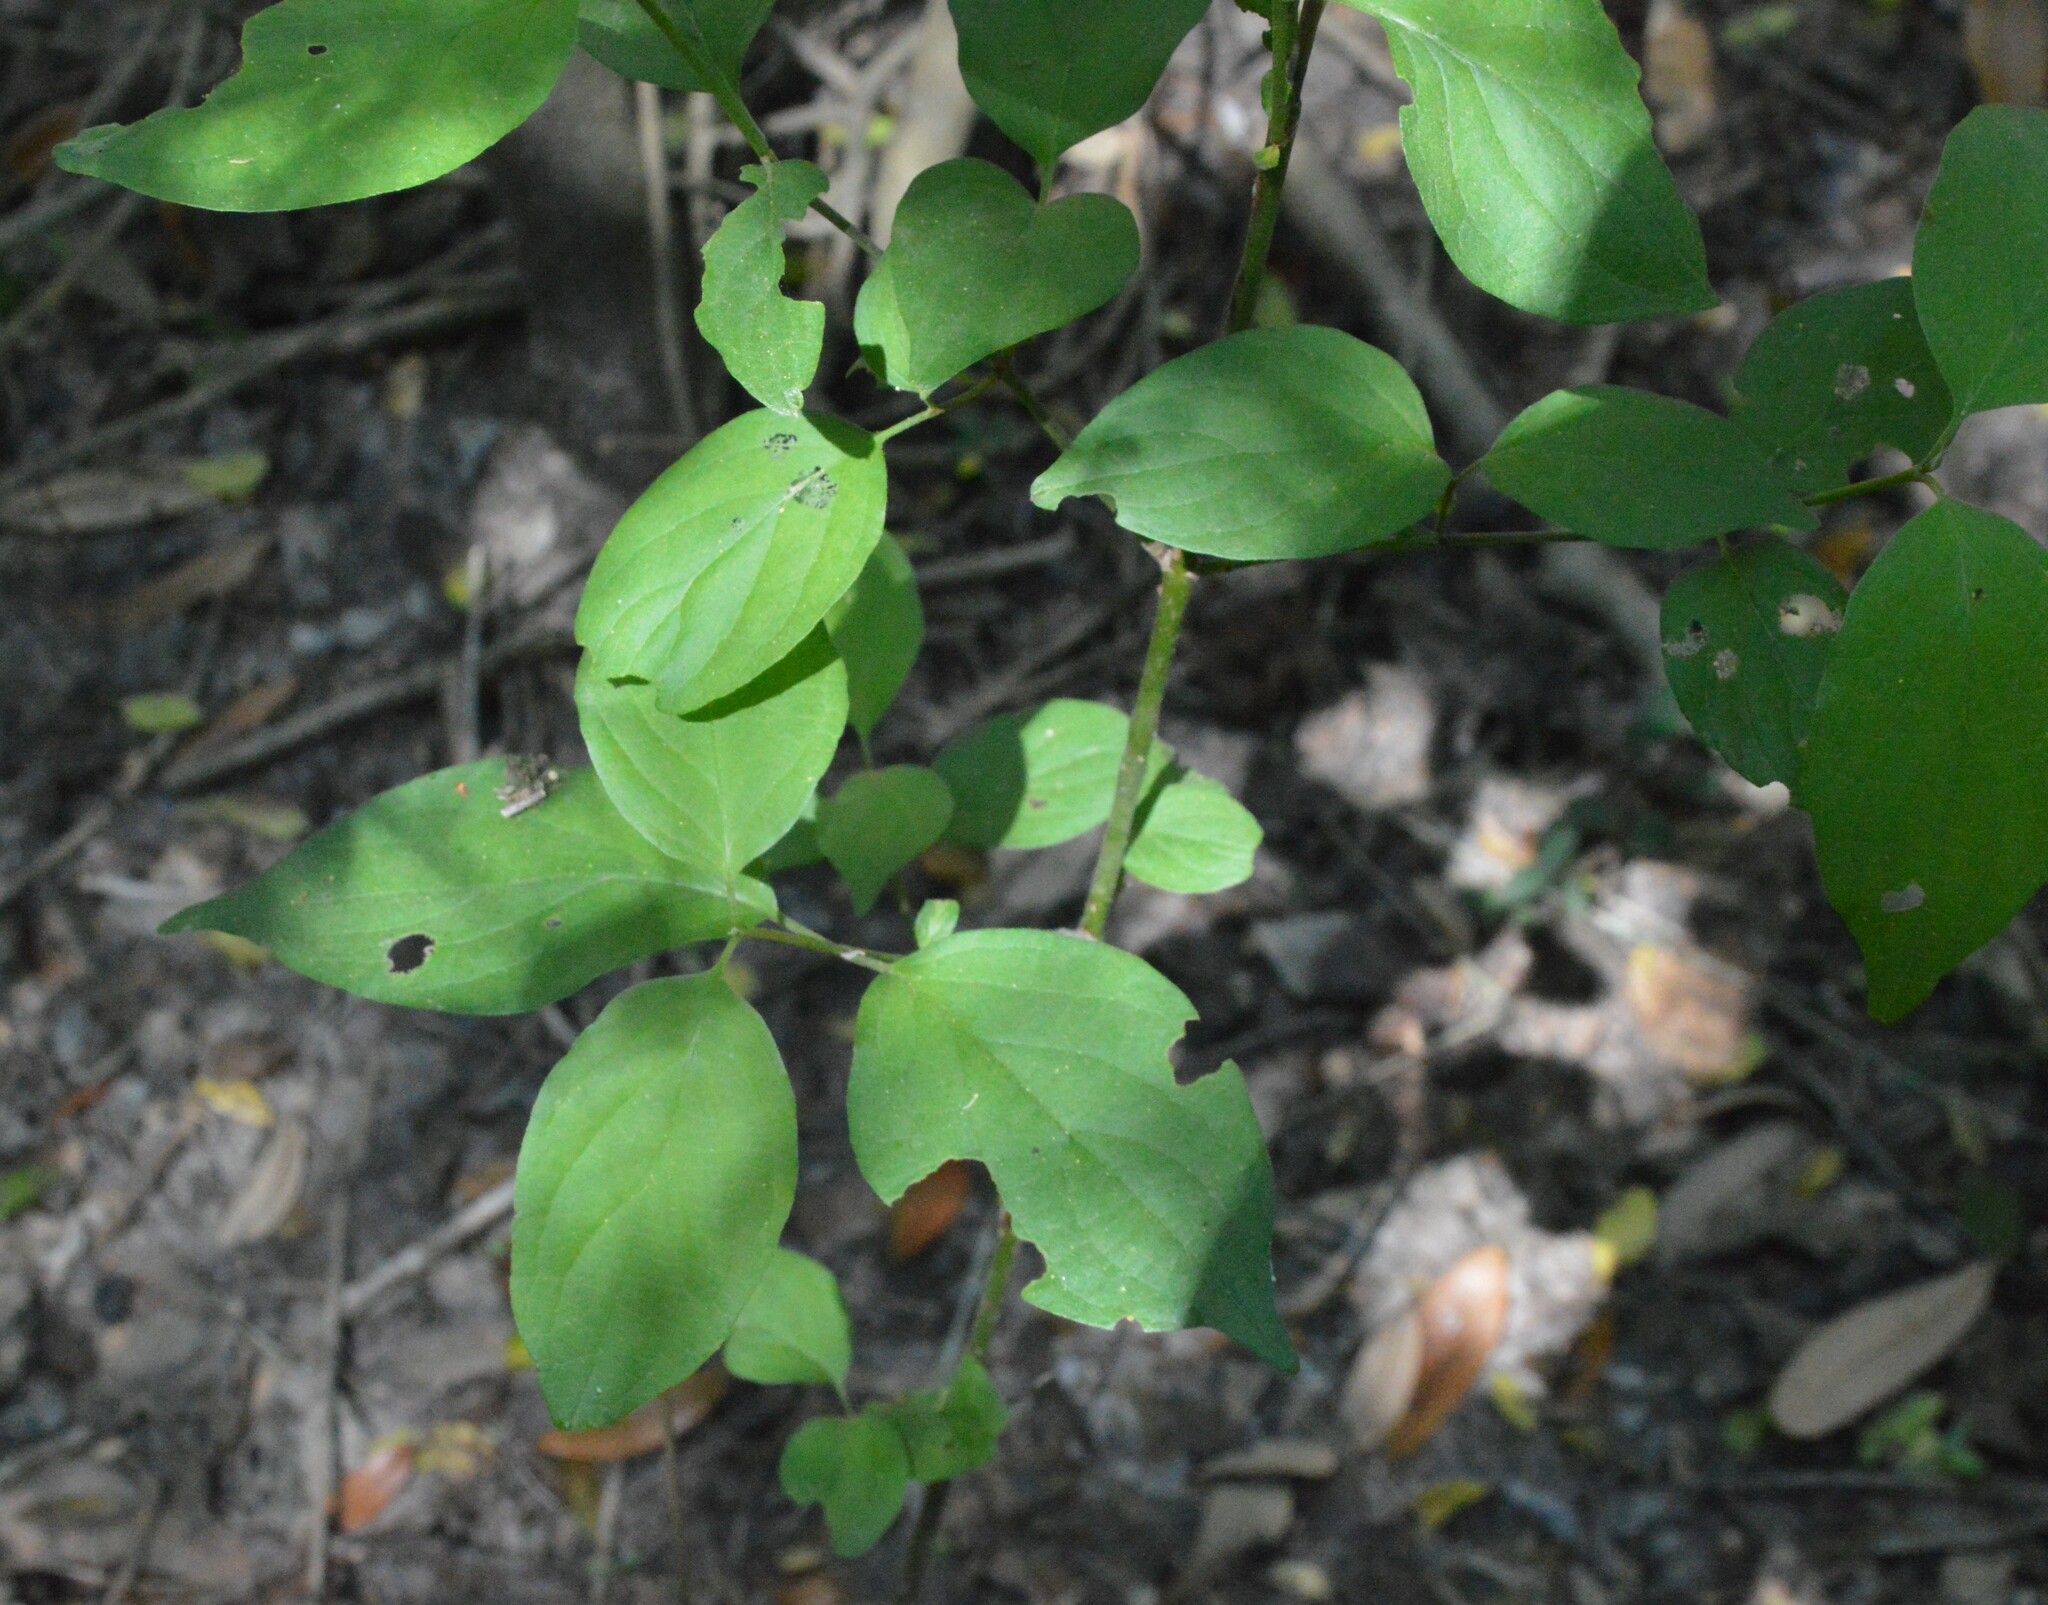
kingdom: Plantae
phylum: Tracheophyta
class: Magnoliopsida
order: Cornales
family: Cornaceae
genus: Cornus
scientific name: Cornus drummondii
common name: Rough-leaf dogwood
